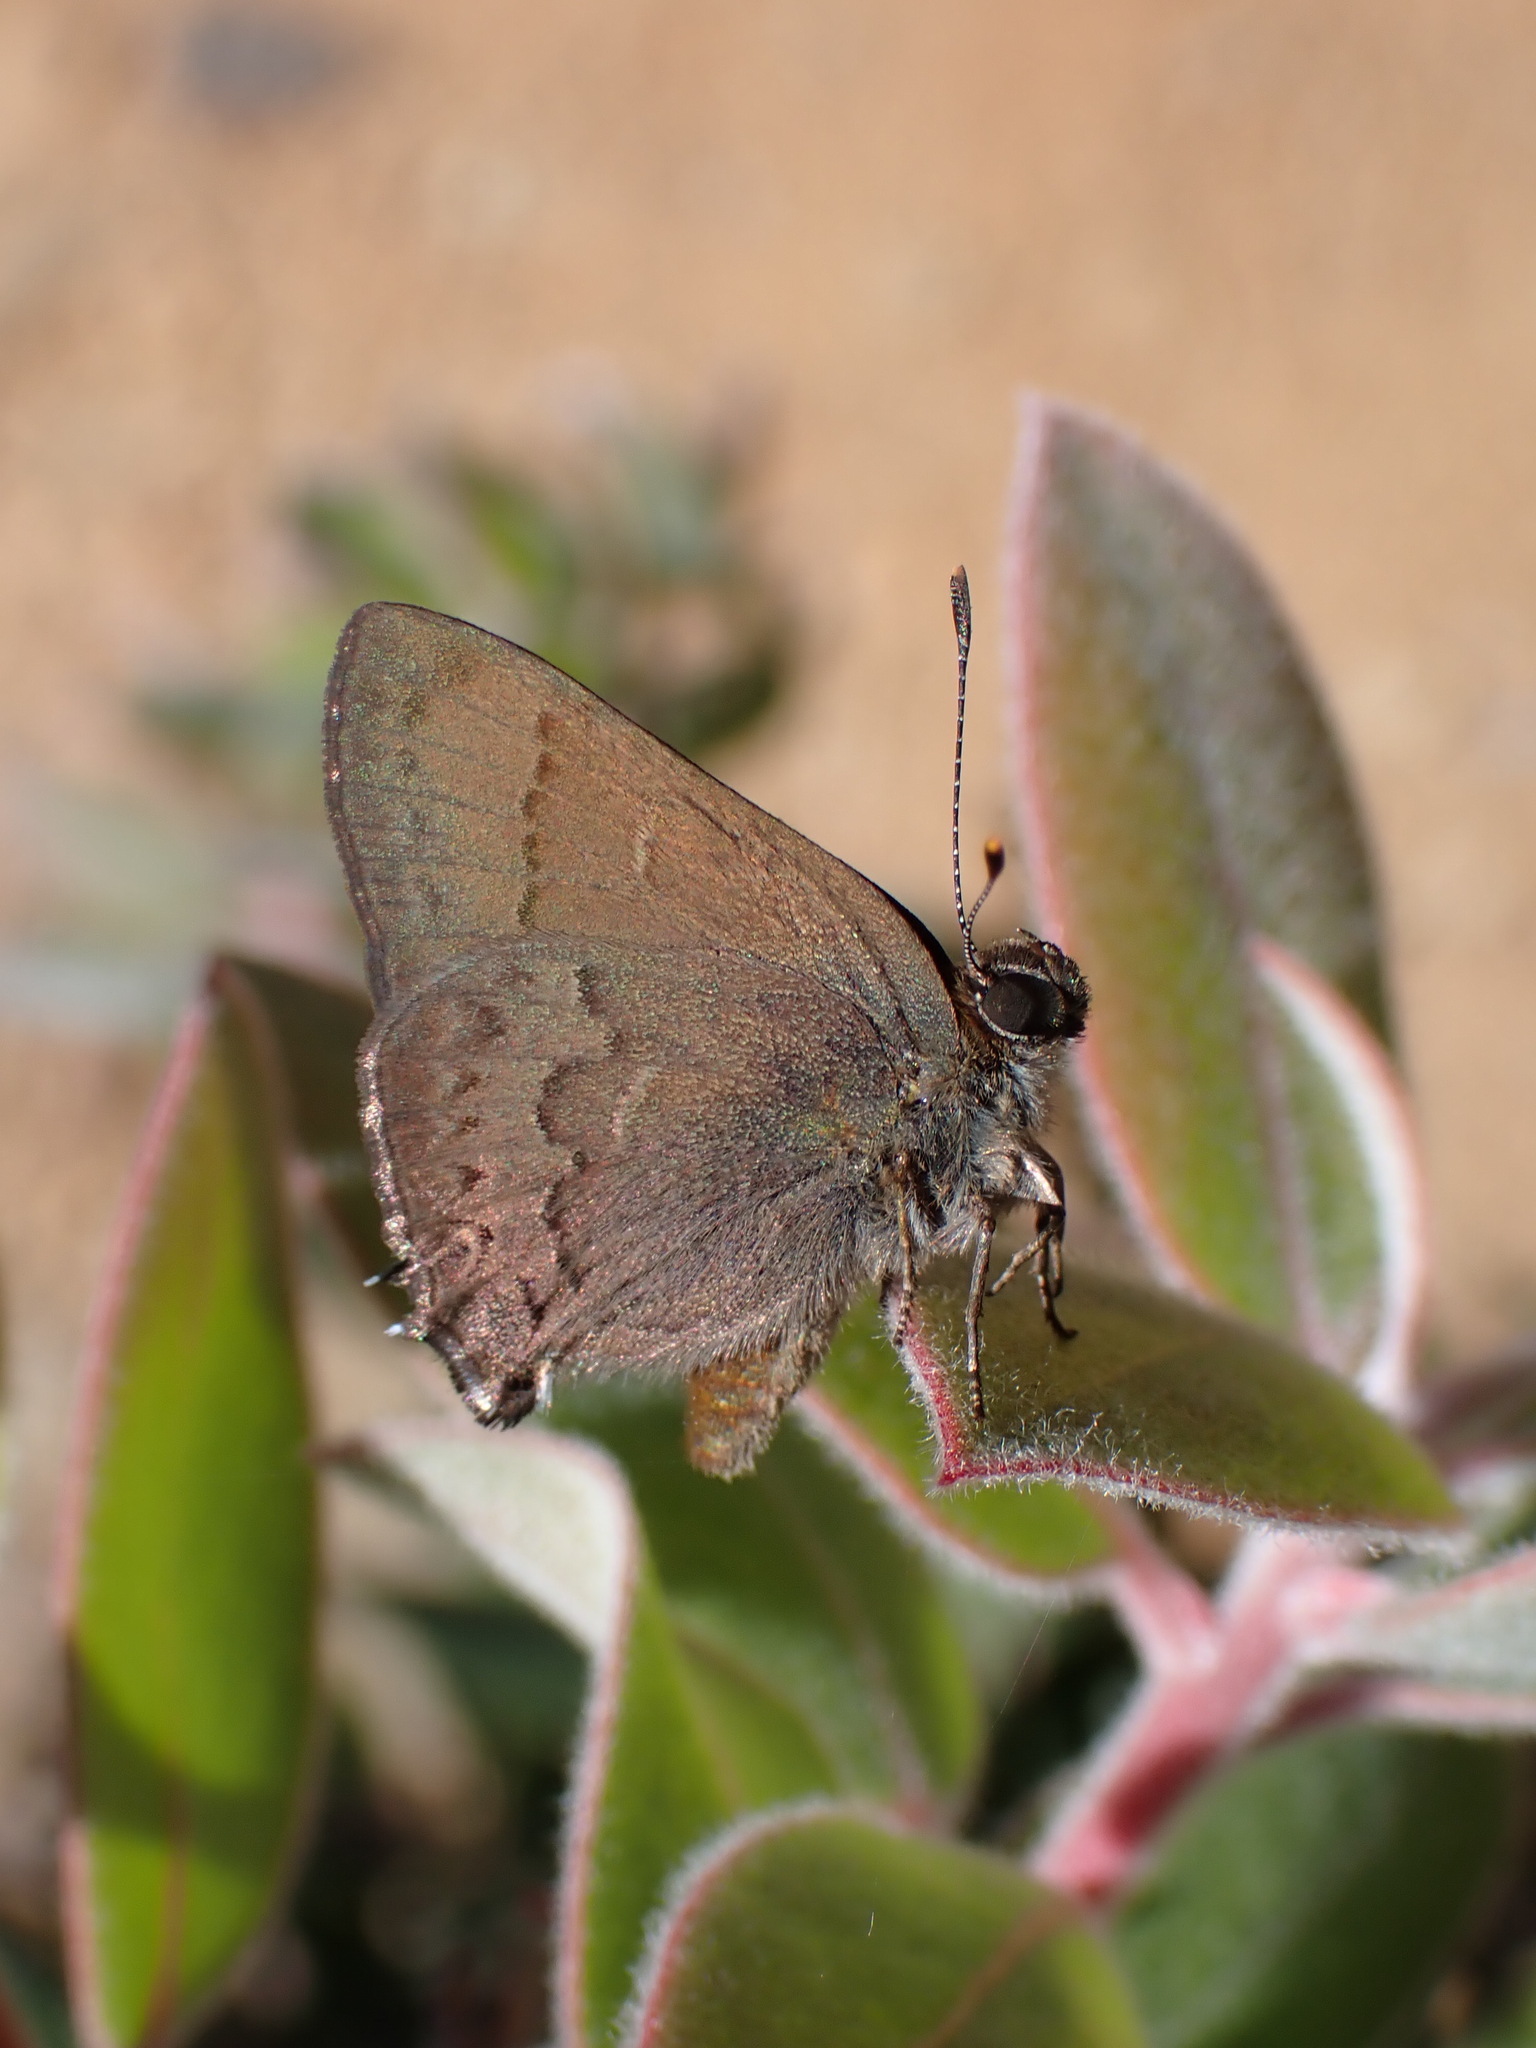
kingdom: Animalia
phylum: Arthropoda
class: Insecta
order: Lepidoptera
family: Lycaenidae
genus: Strymon
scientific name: Strymon saepium
